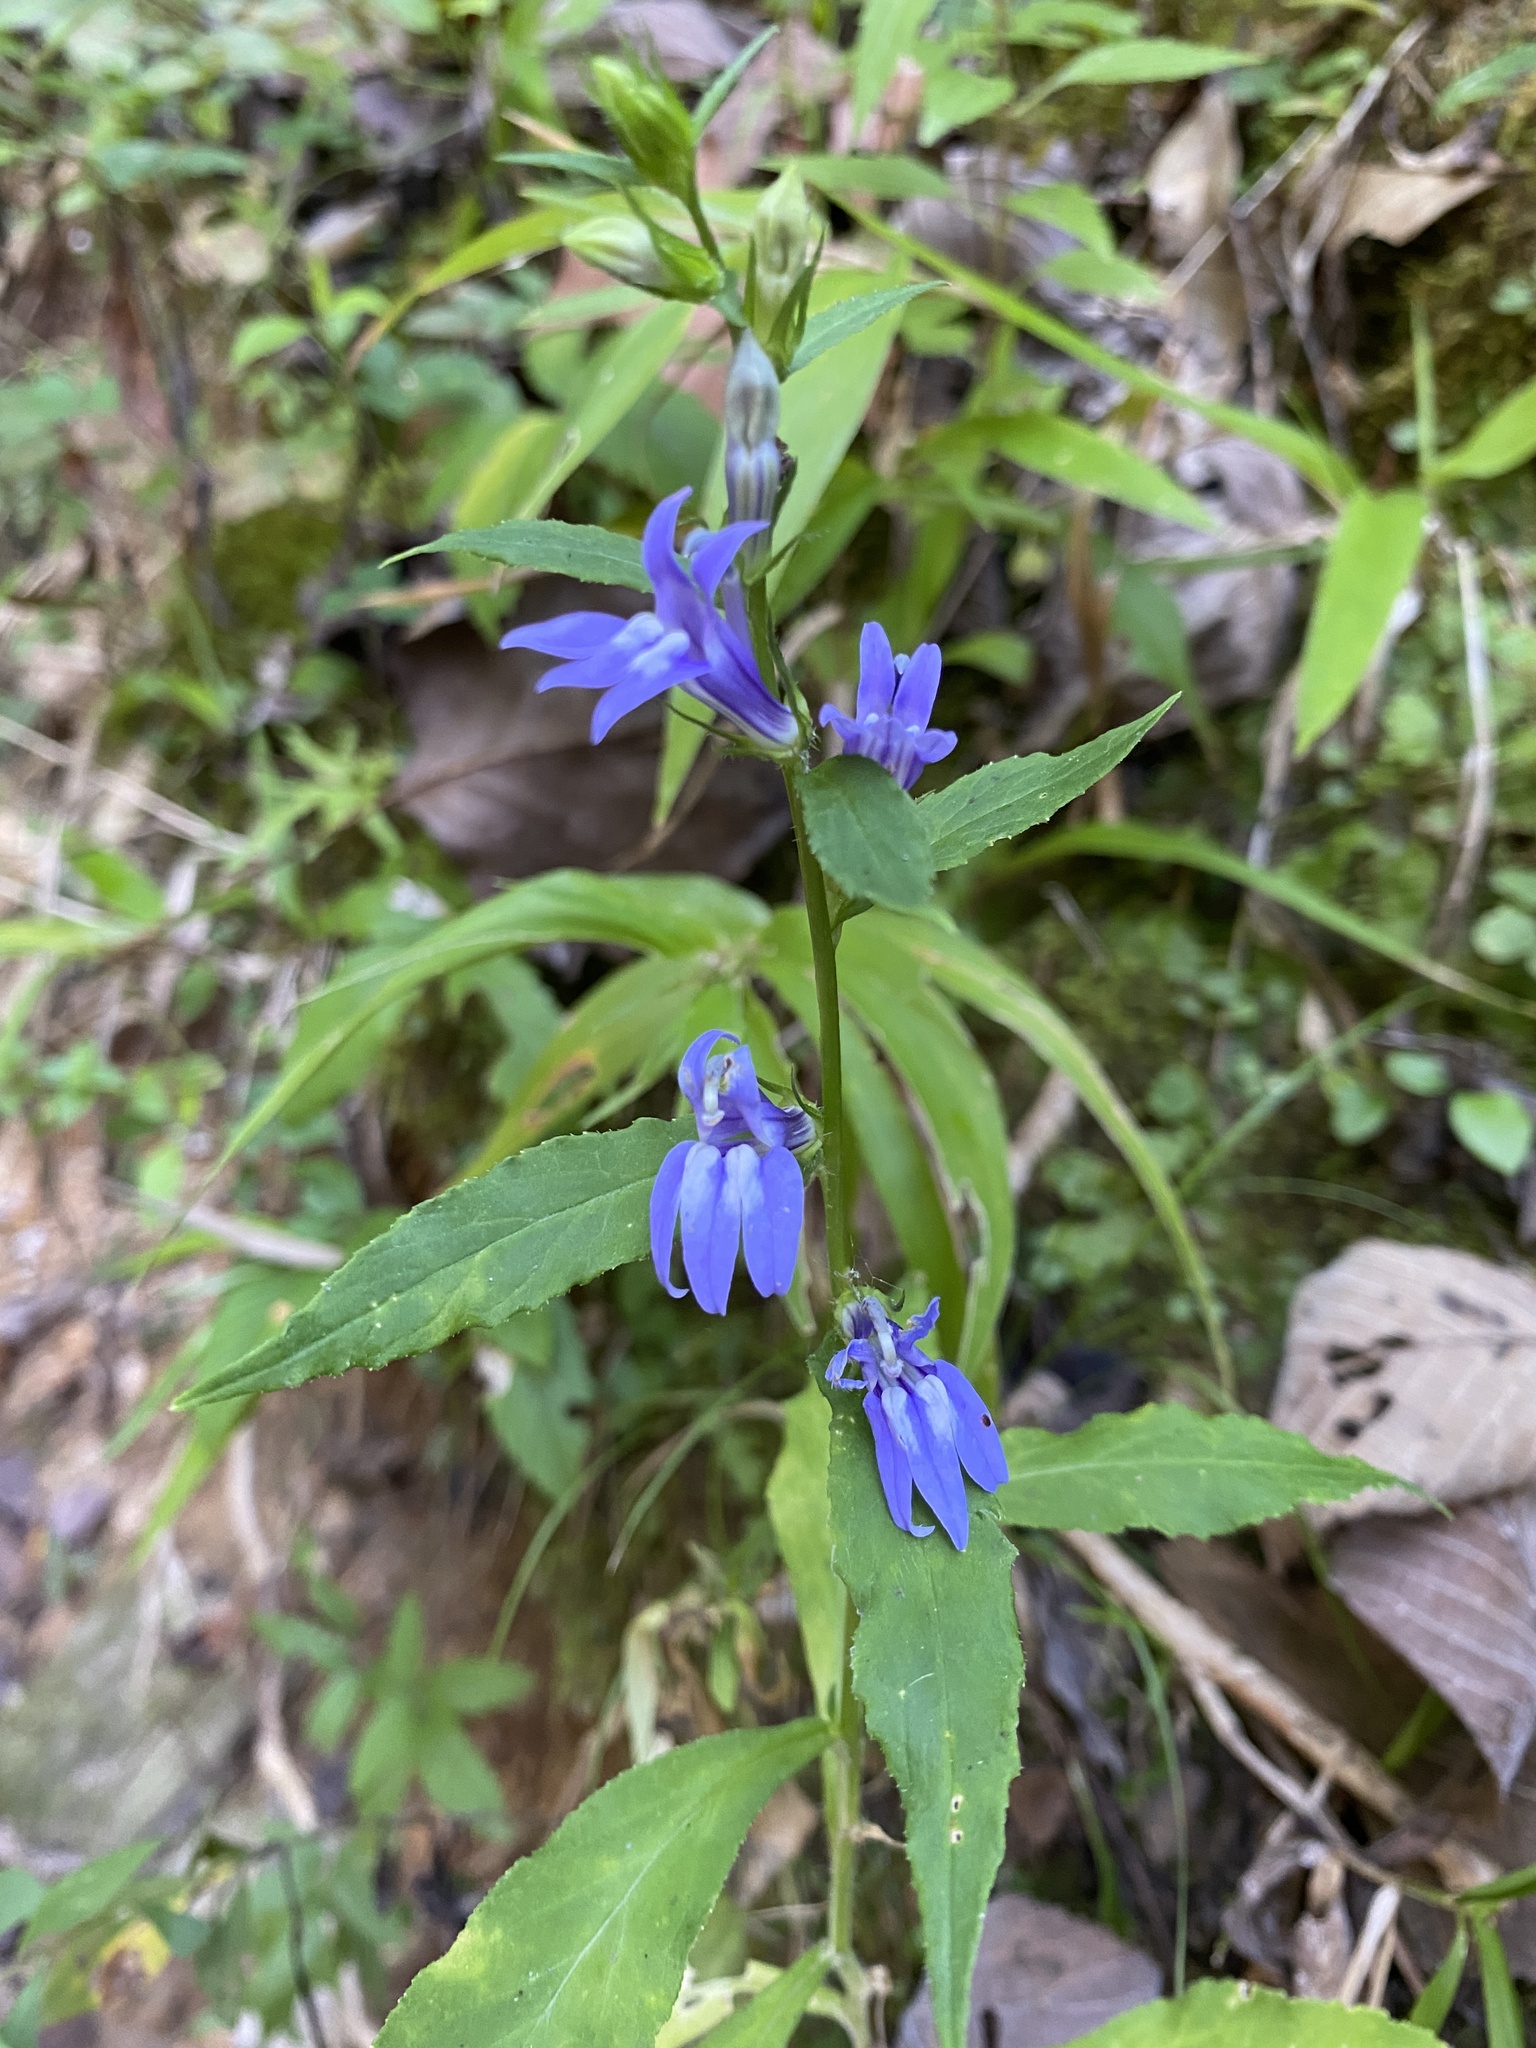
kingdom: Plantae
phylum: Tracheophyta
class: Magnoliopsida
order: Asterales
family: Campanulaceae
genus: Lobelia
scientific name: Lobelia siphilitica
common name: Great lobelia
